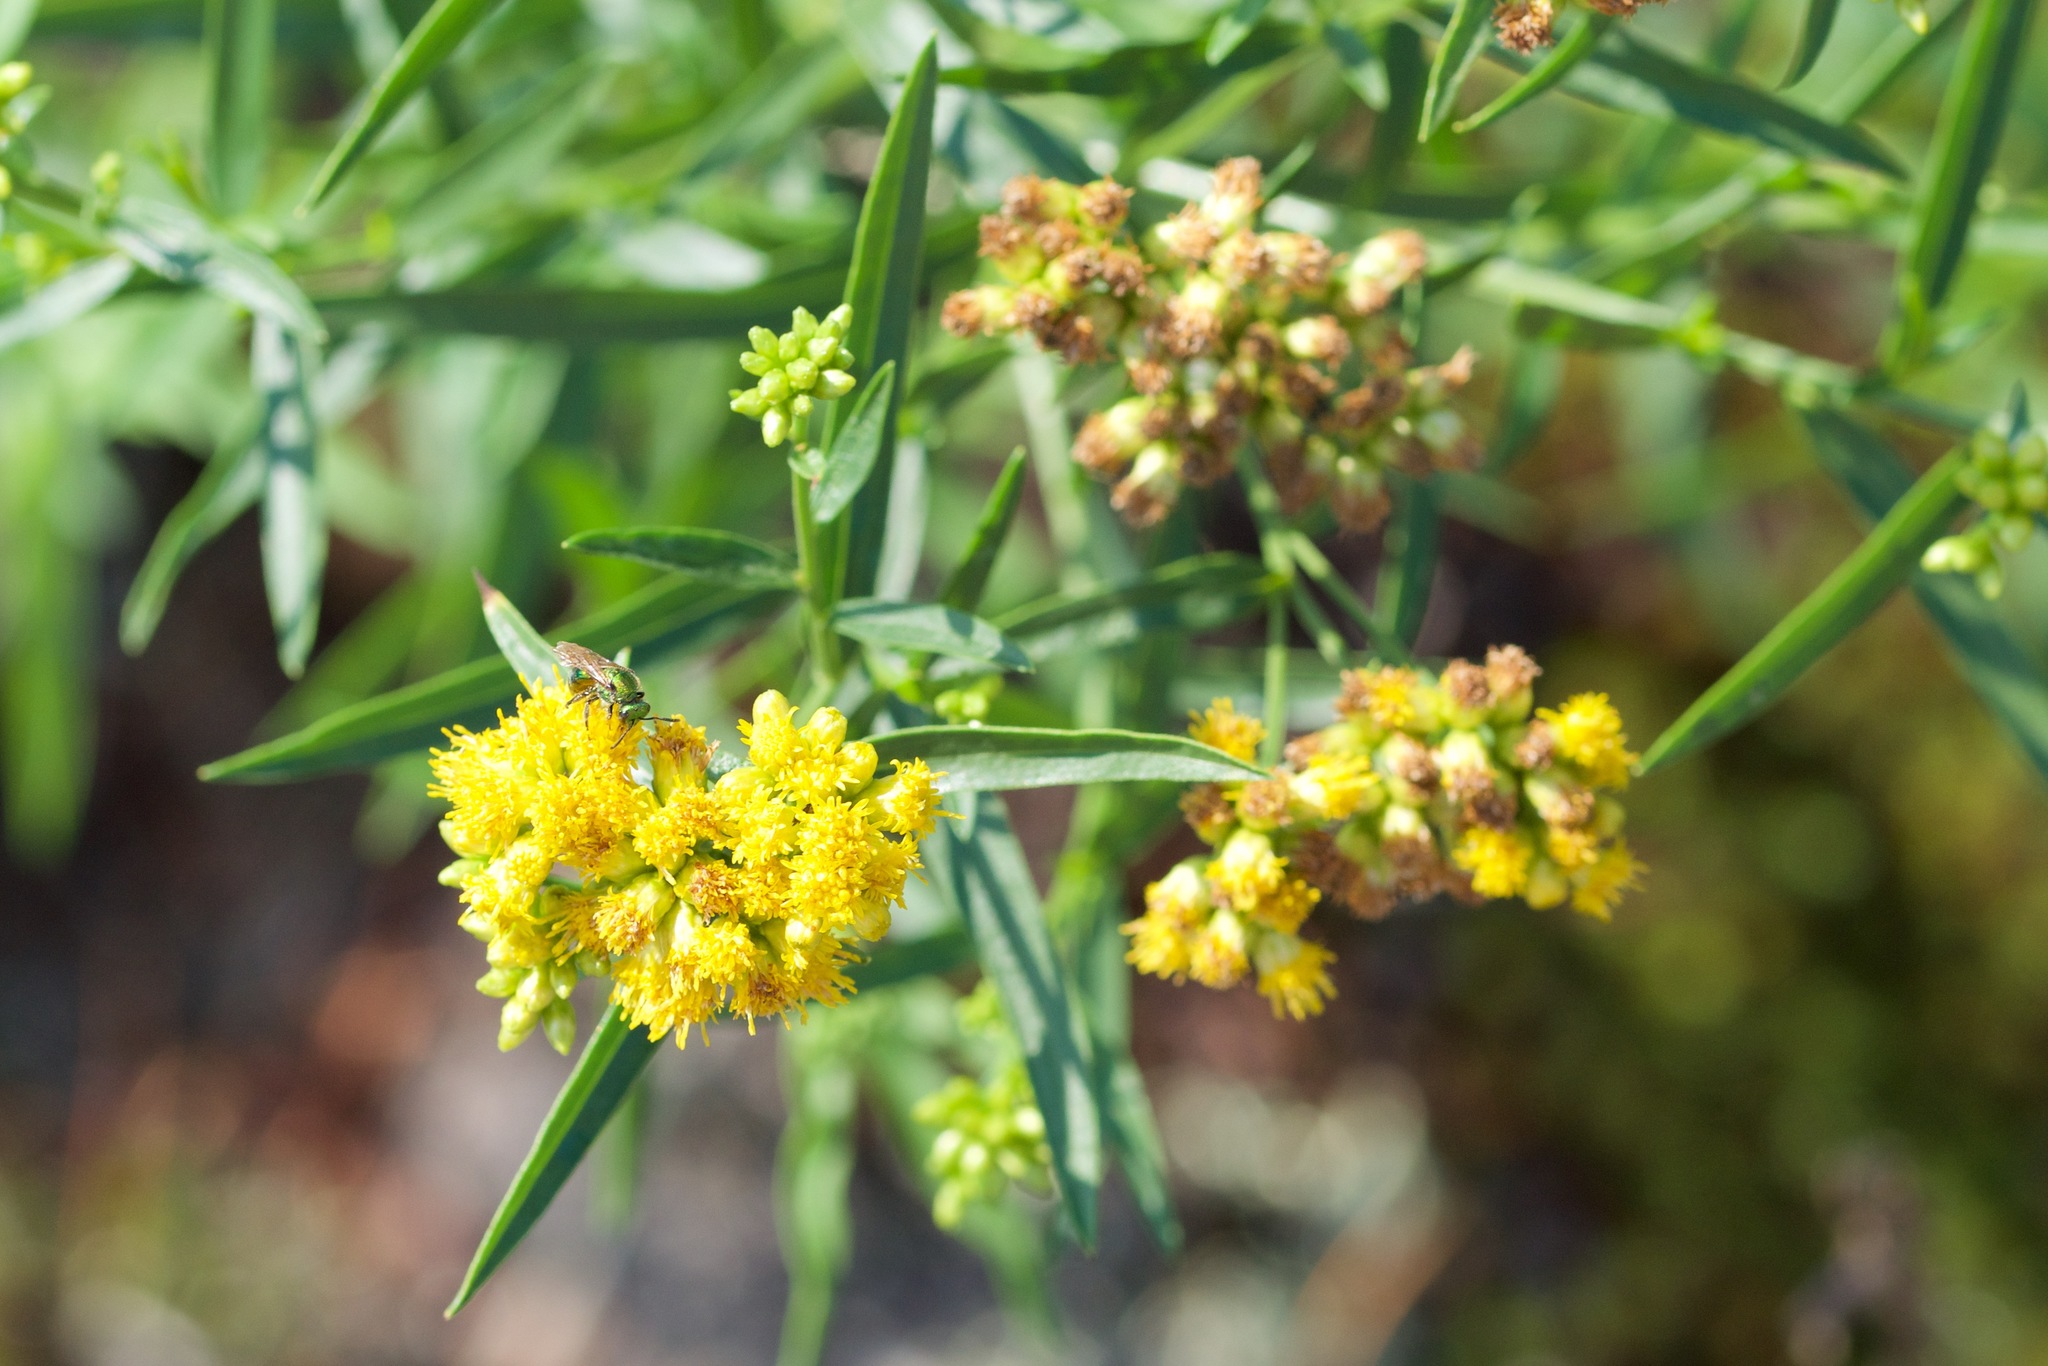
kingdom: Plantae
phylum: Tracheophyta
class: Magnoliopsida
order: Asterales
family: Asteraceae
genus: Euthamia
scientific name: Euthamia graminifolia
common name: Common goldentop
